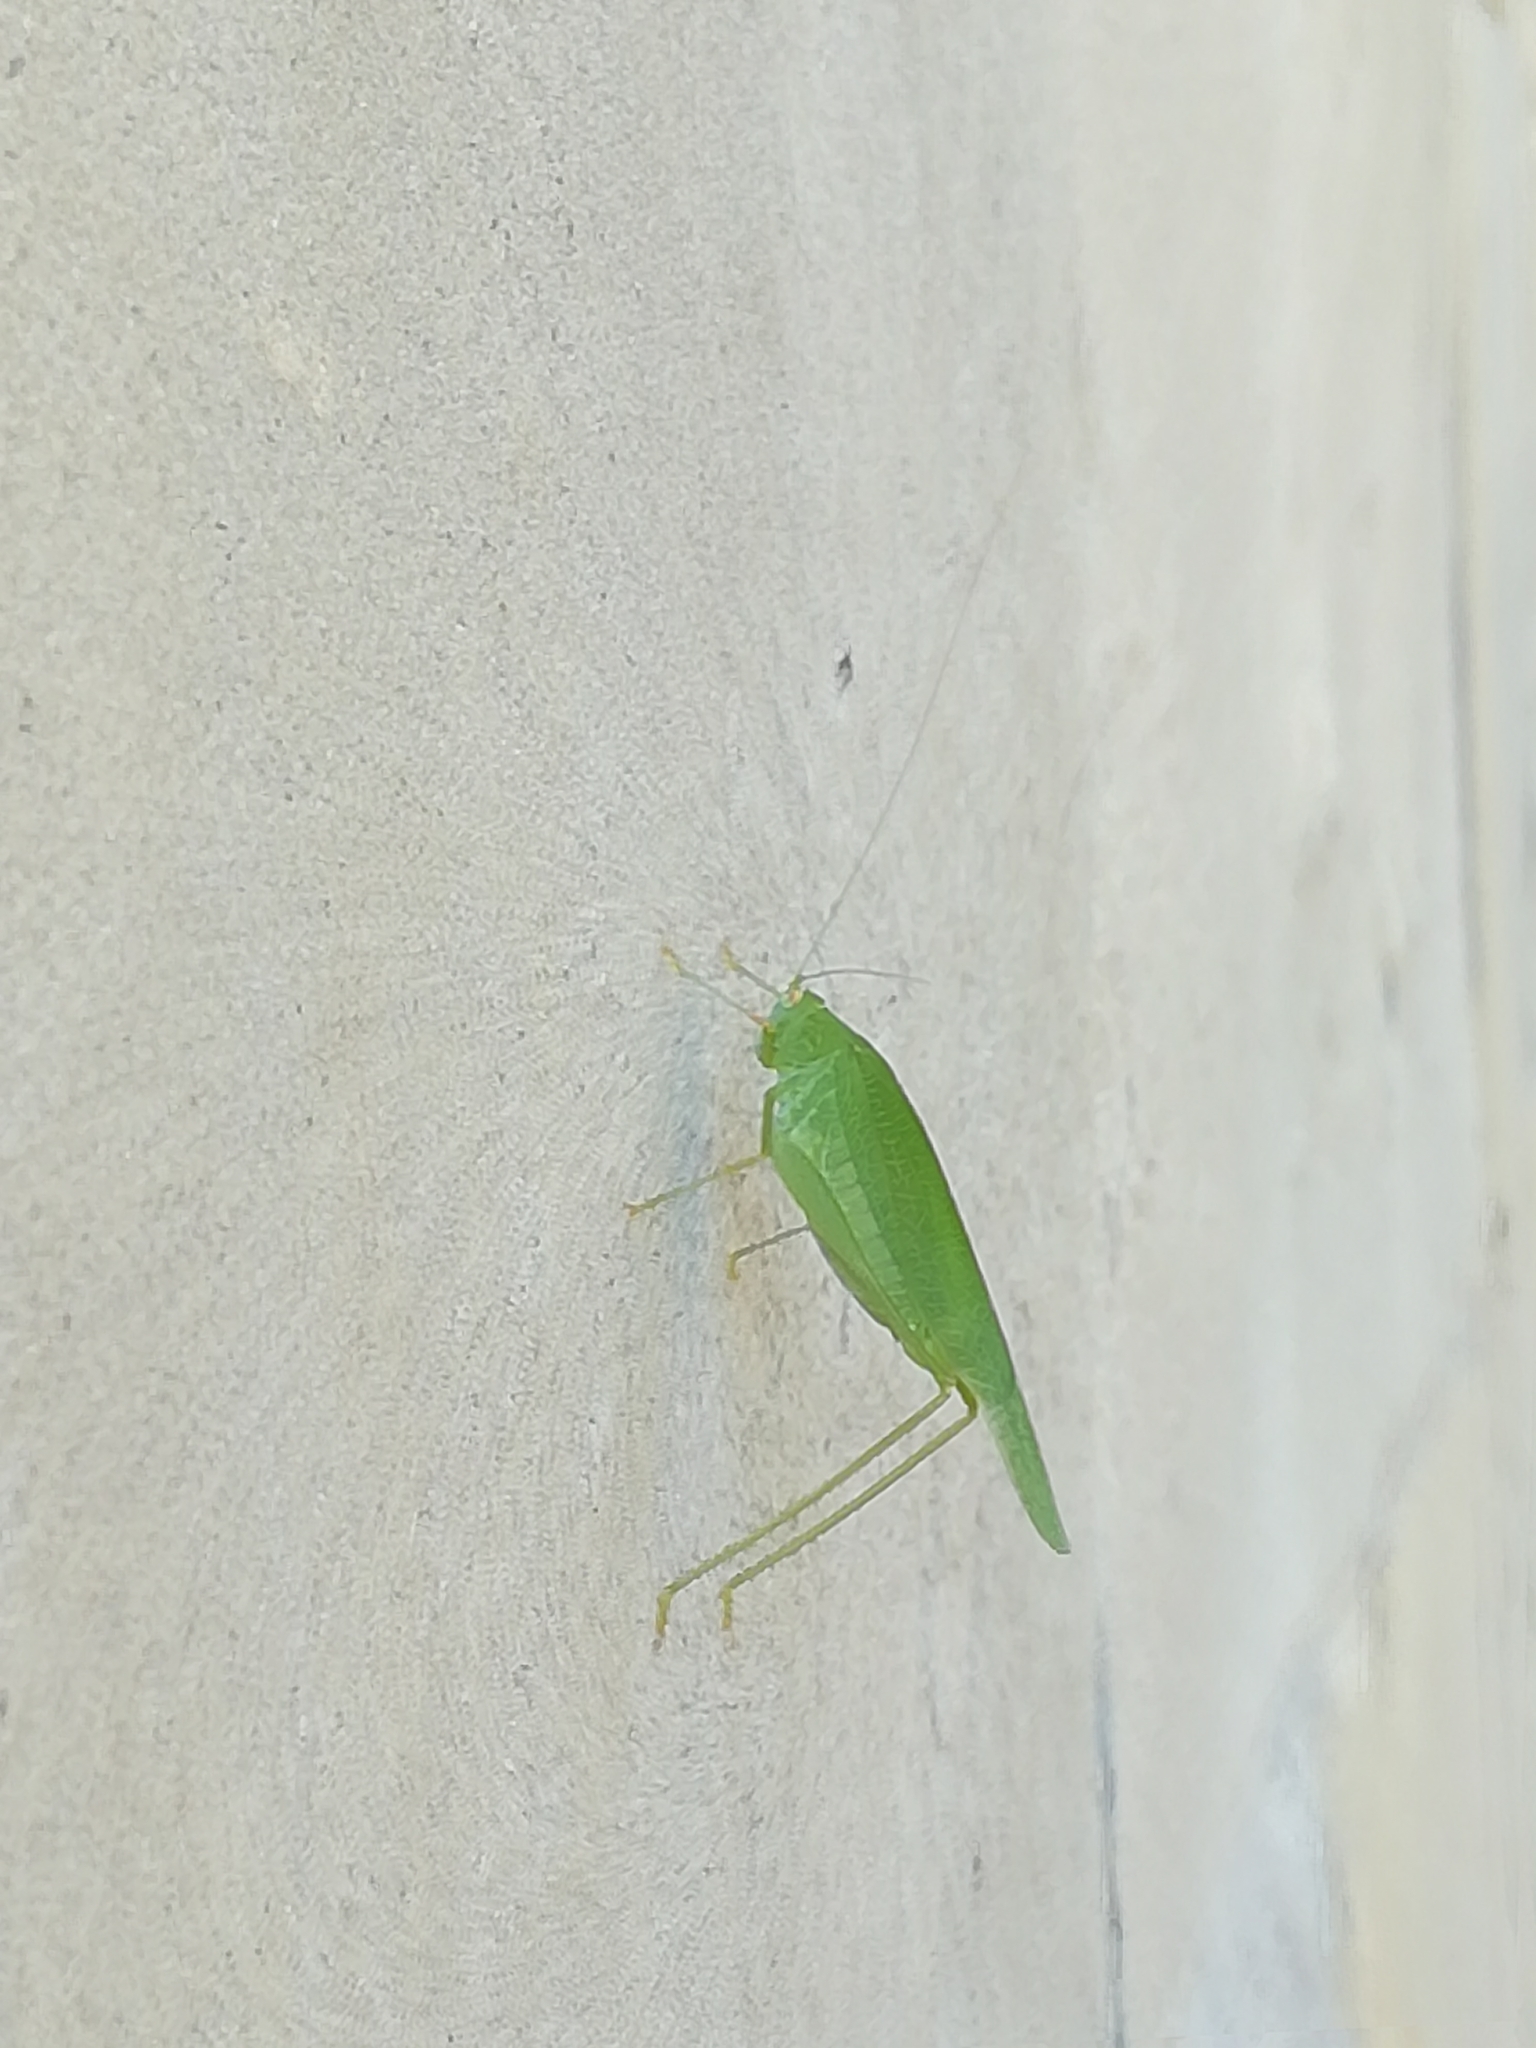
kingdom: Animalia
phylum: Arthropoda
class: Insecta
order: Orthoptera
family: Tettigoniidae
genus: Phaneroptera
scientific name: Phaneroptera nana
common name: Southern sickle bush-cricket
